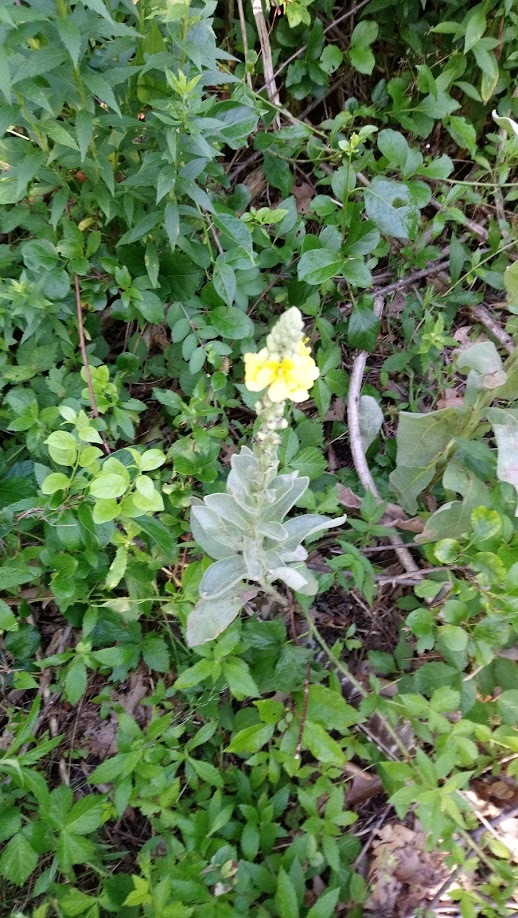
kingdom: Plantae
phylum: Tracheophyta
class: Magnoliopsida
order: Lamiales
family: Scrophulariaceae
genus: Verbascum
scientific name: Verbascum thapsus
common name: Common mullein
